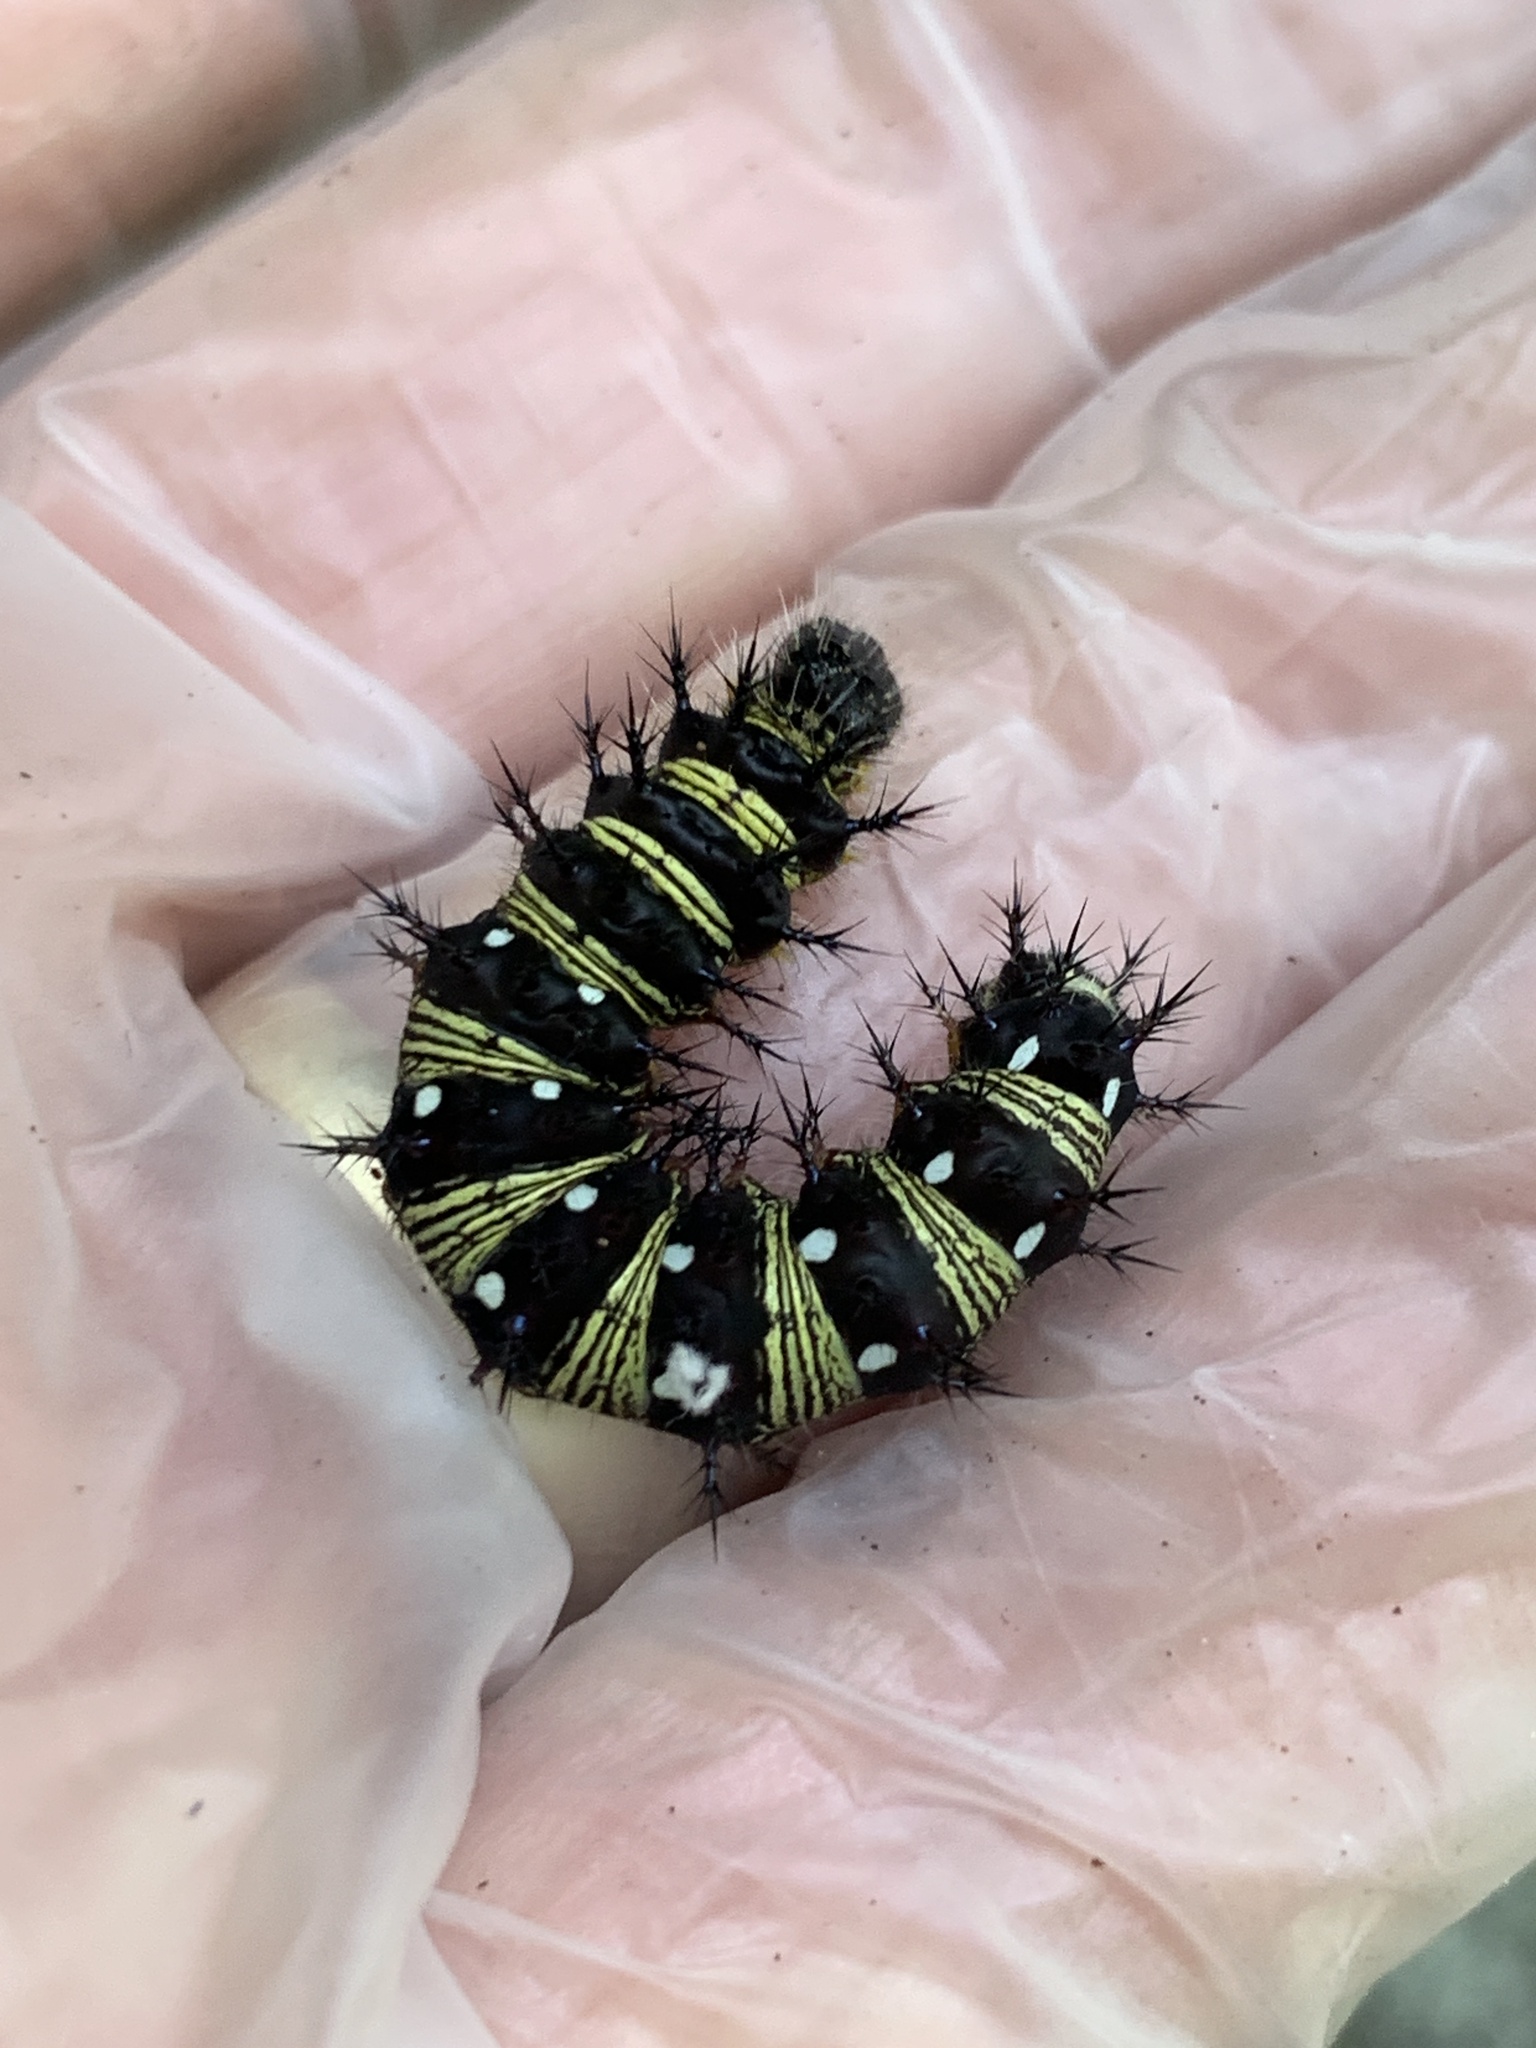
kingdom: Animalia
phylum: Arthropoda
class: Insecta
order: Lepidoptera
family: Nymphalidae
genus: Vanessa
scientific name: Vanessa virginiensis
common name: American lady
